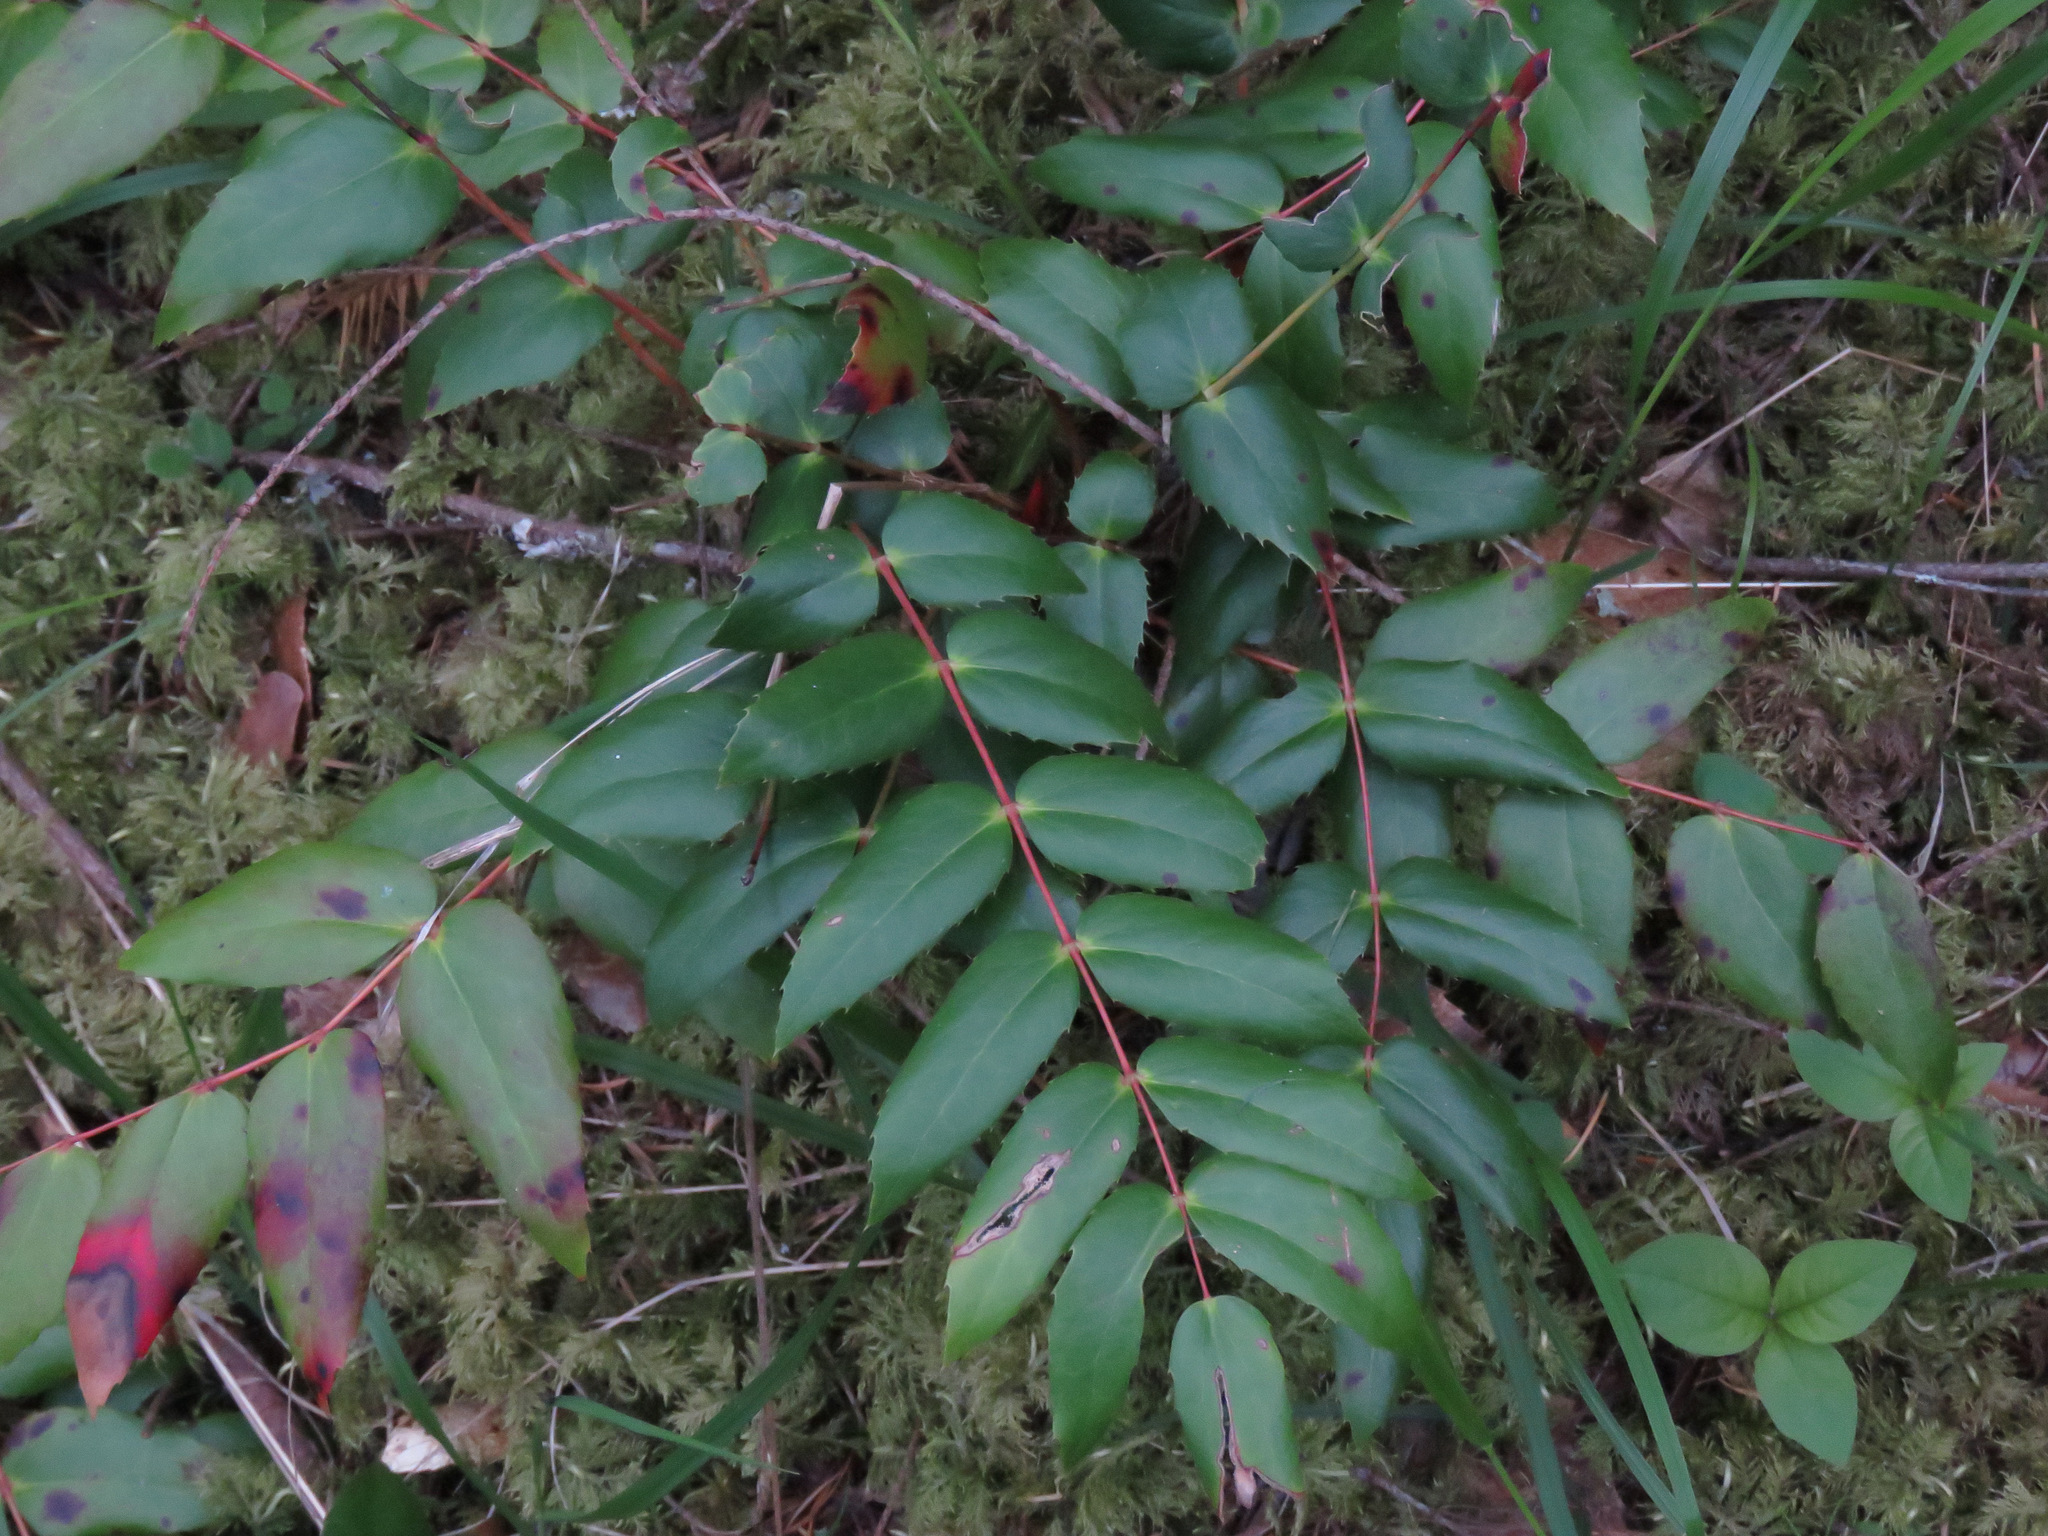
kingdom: Plantae
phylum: Tracheophyta
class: Magnoliopsida
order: Ranunculales
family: Berberidaceae
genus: Mahonia
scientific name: Mahonia nervosa
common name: Cascade oregon-grape
